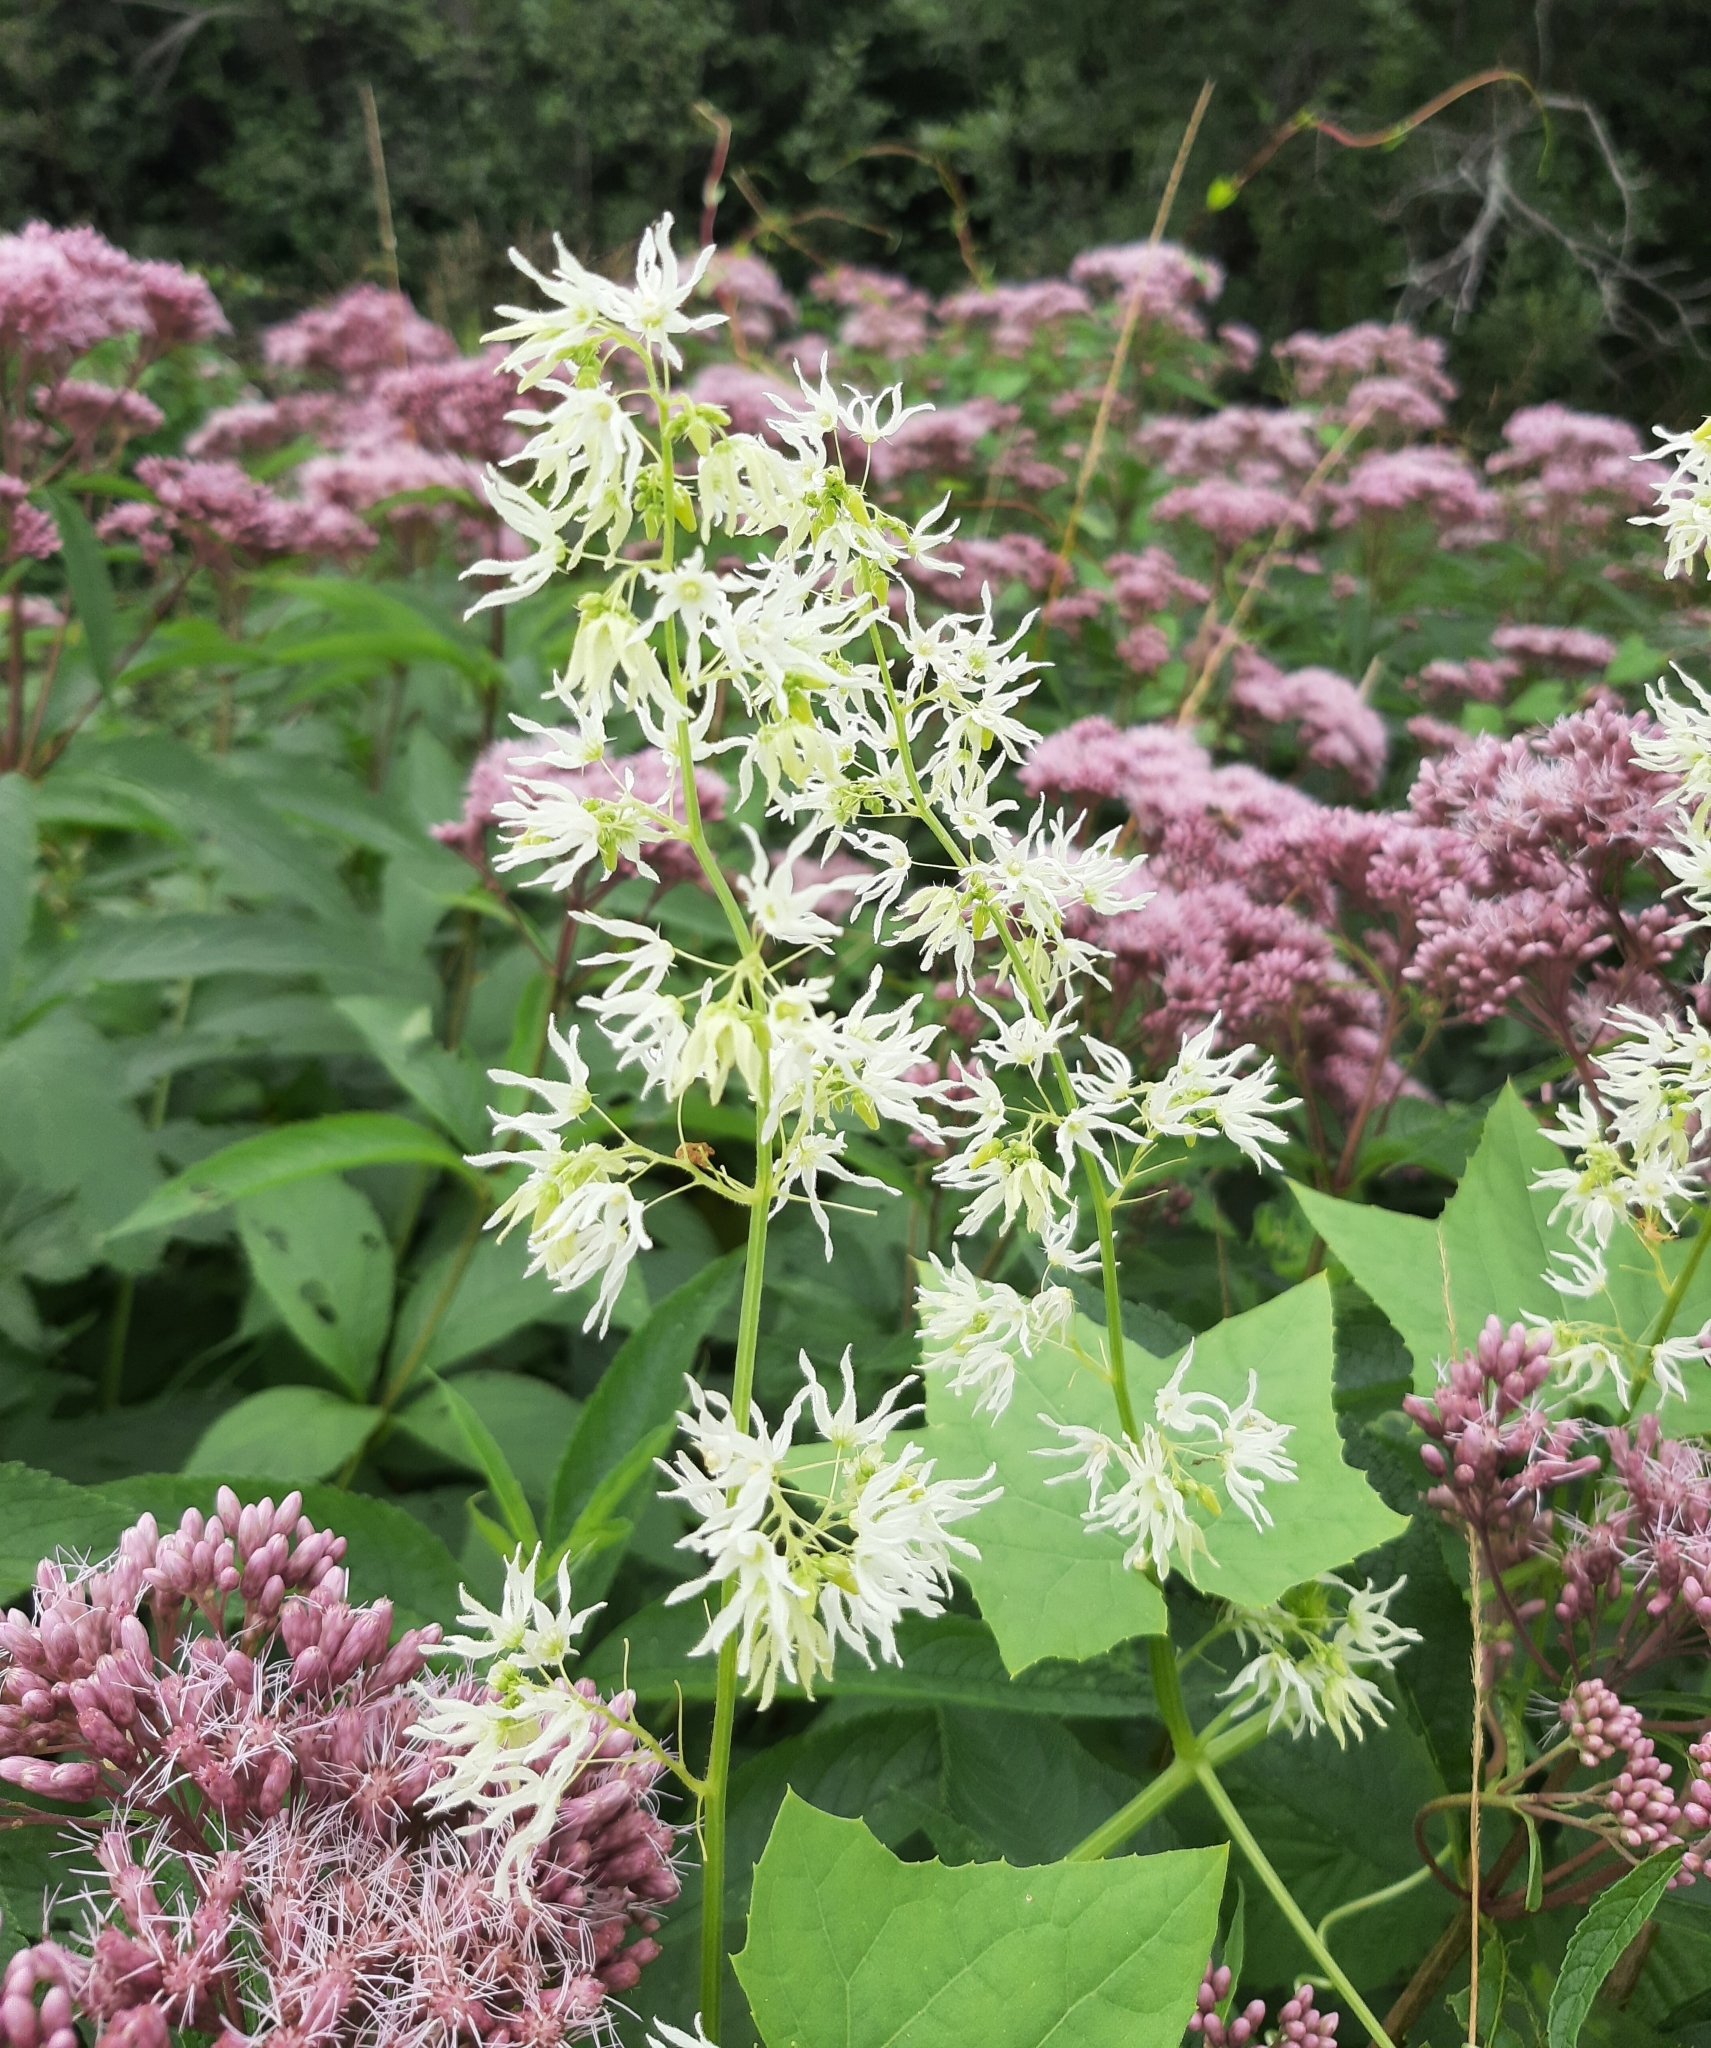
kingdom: Plantae
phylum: Tracheophyta
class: Magnoliopsida
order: Cucurbitales
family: Cucurbitaceae
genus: Echinocystis
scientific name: Echinocystis lobata
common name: Wild cucumber
